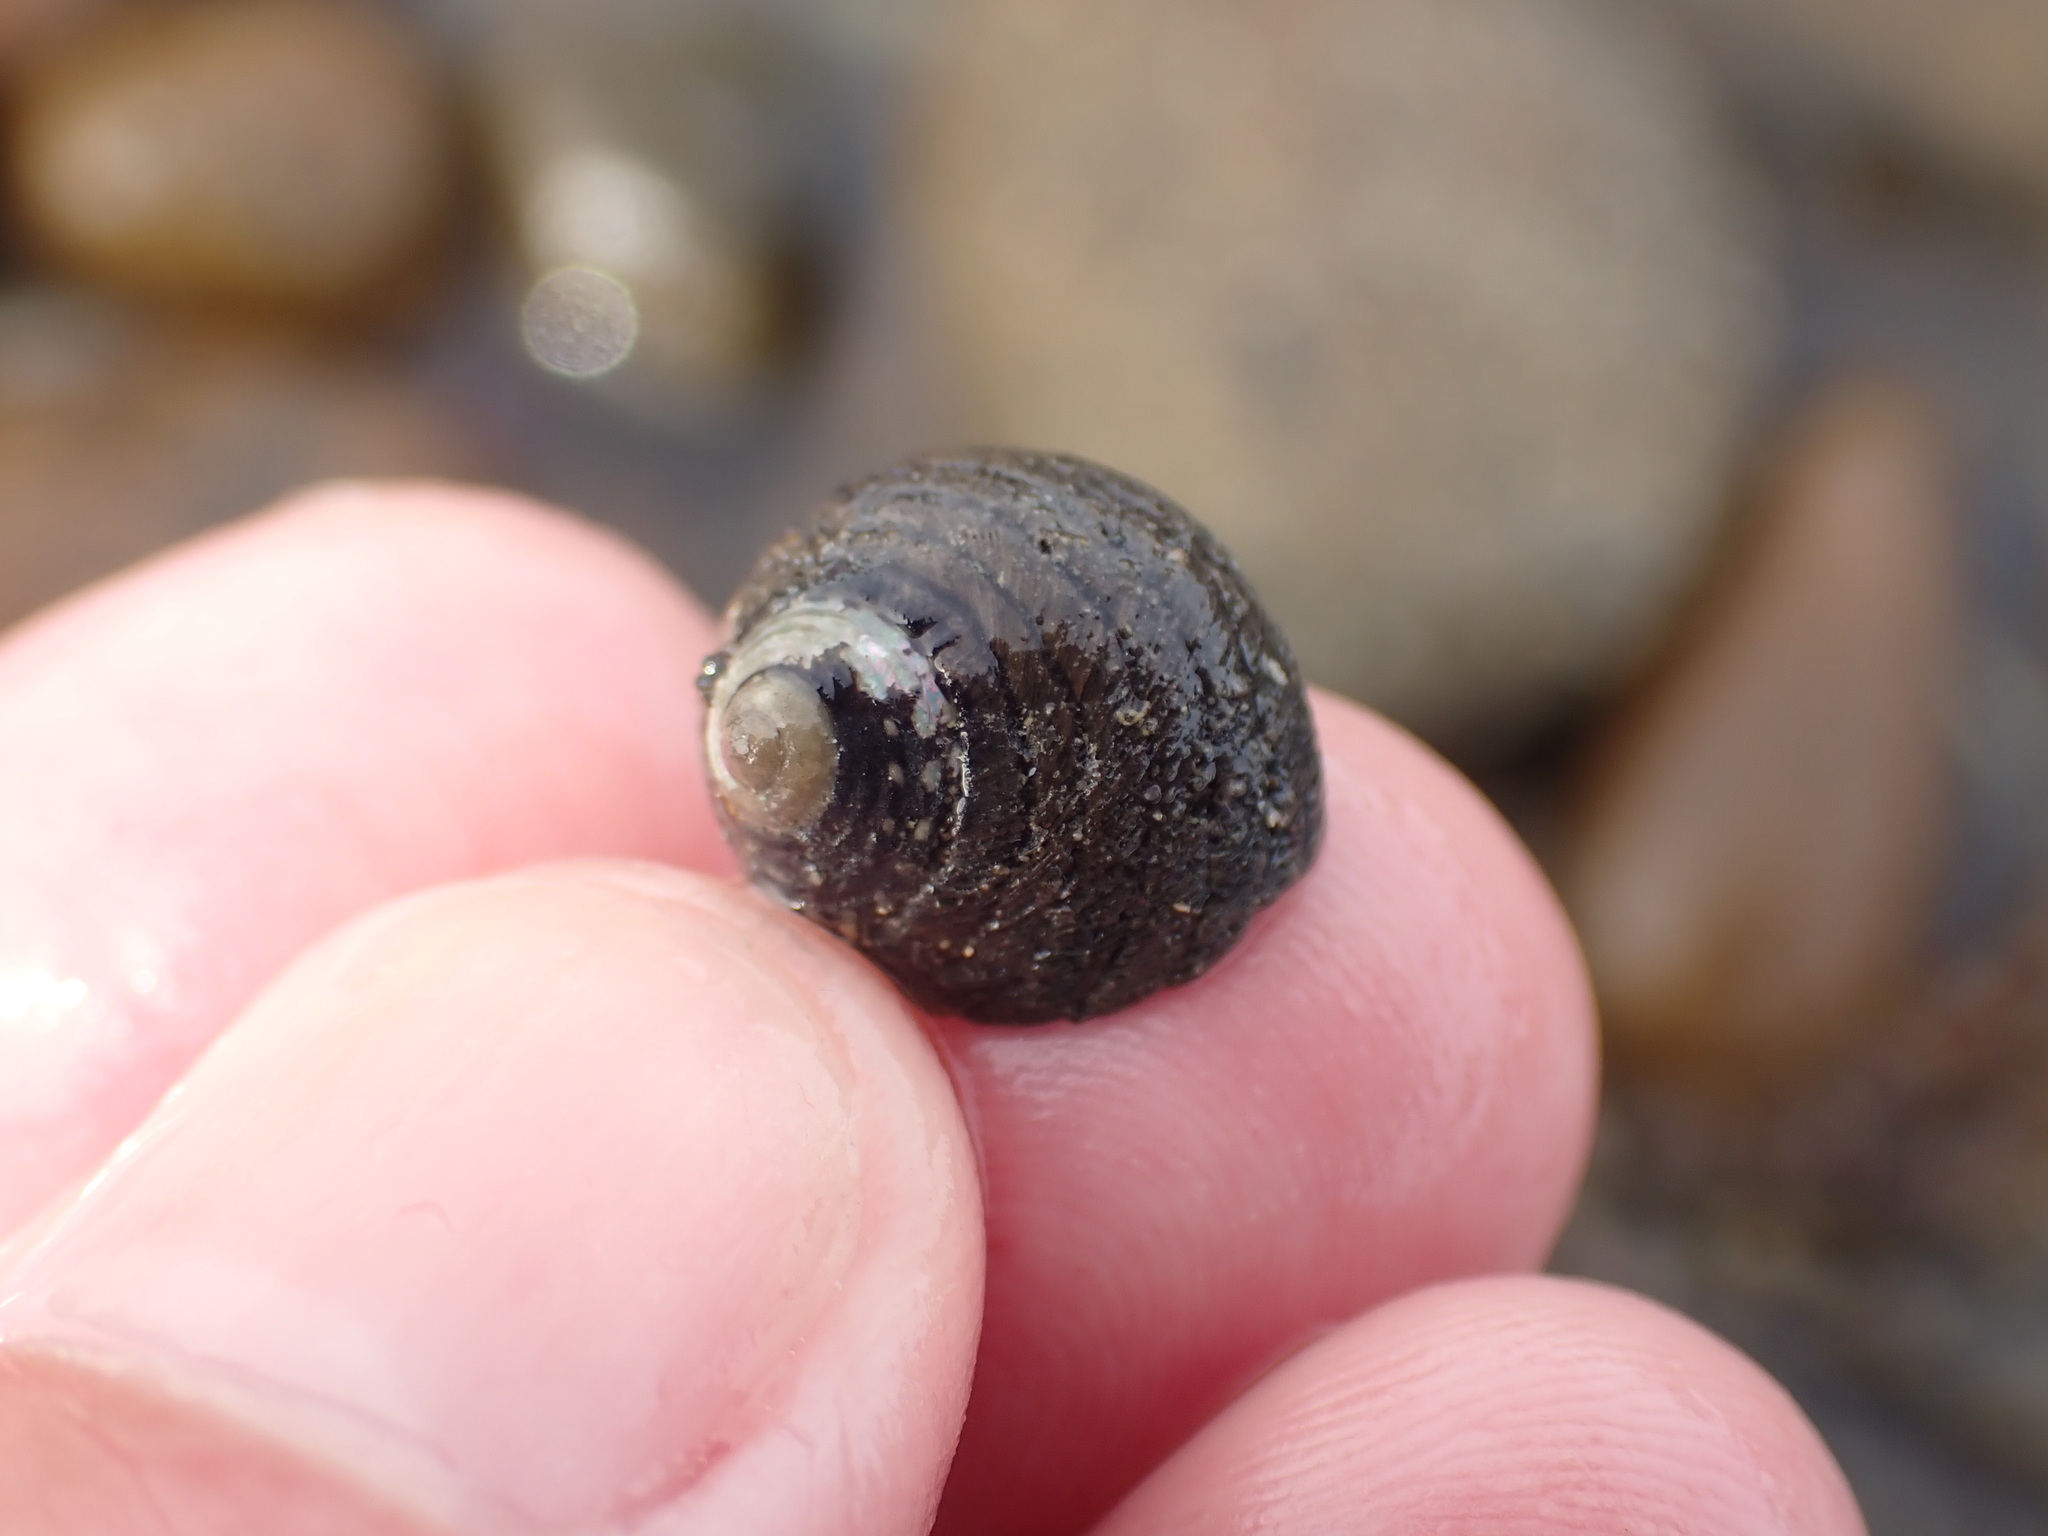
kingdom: Animalia
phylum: Mollusca
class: Gastropoda
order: Trochida
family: Trochidae
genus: Diloma
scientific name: Diloma aethiops
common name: Scorched monodont
